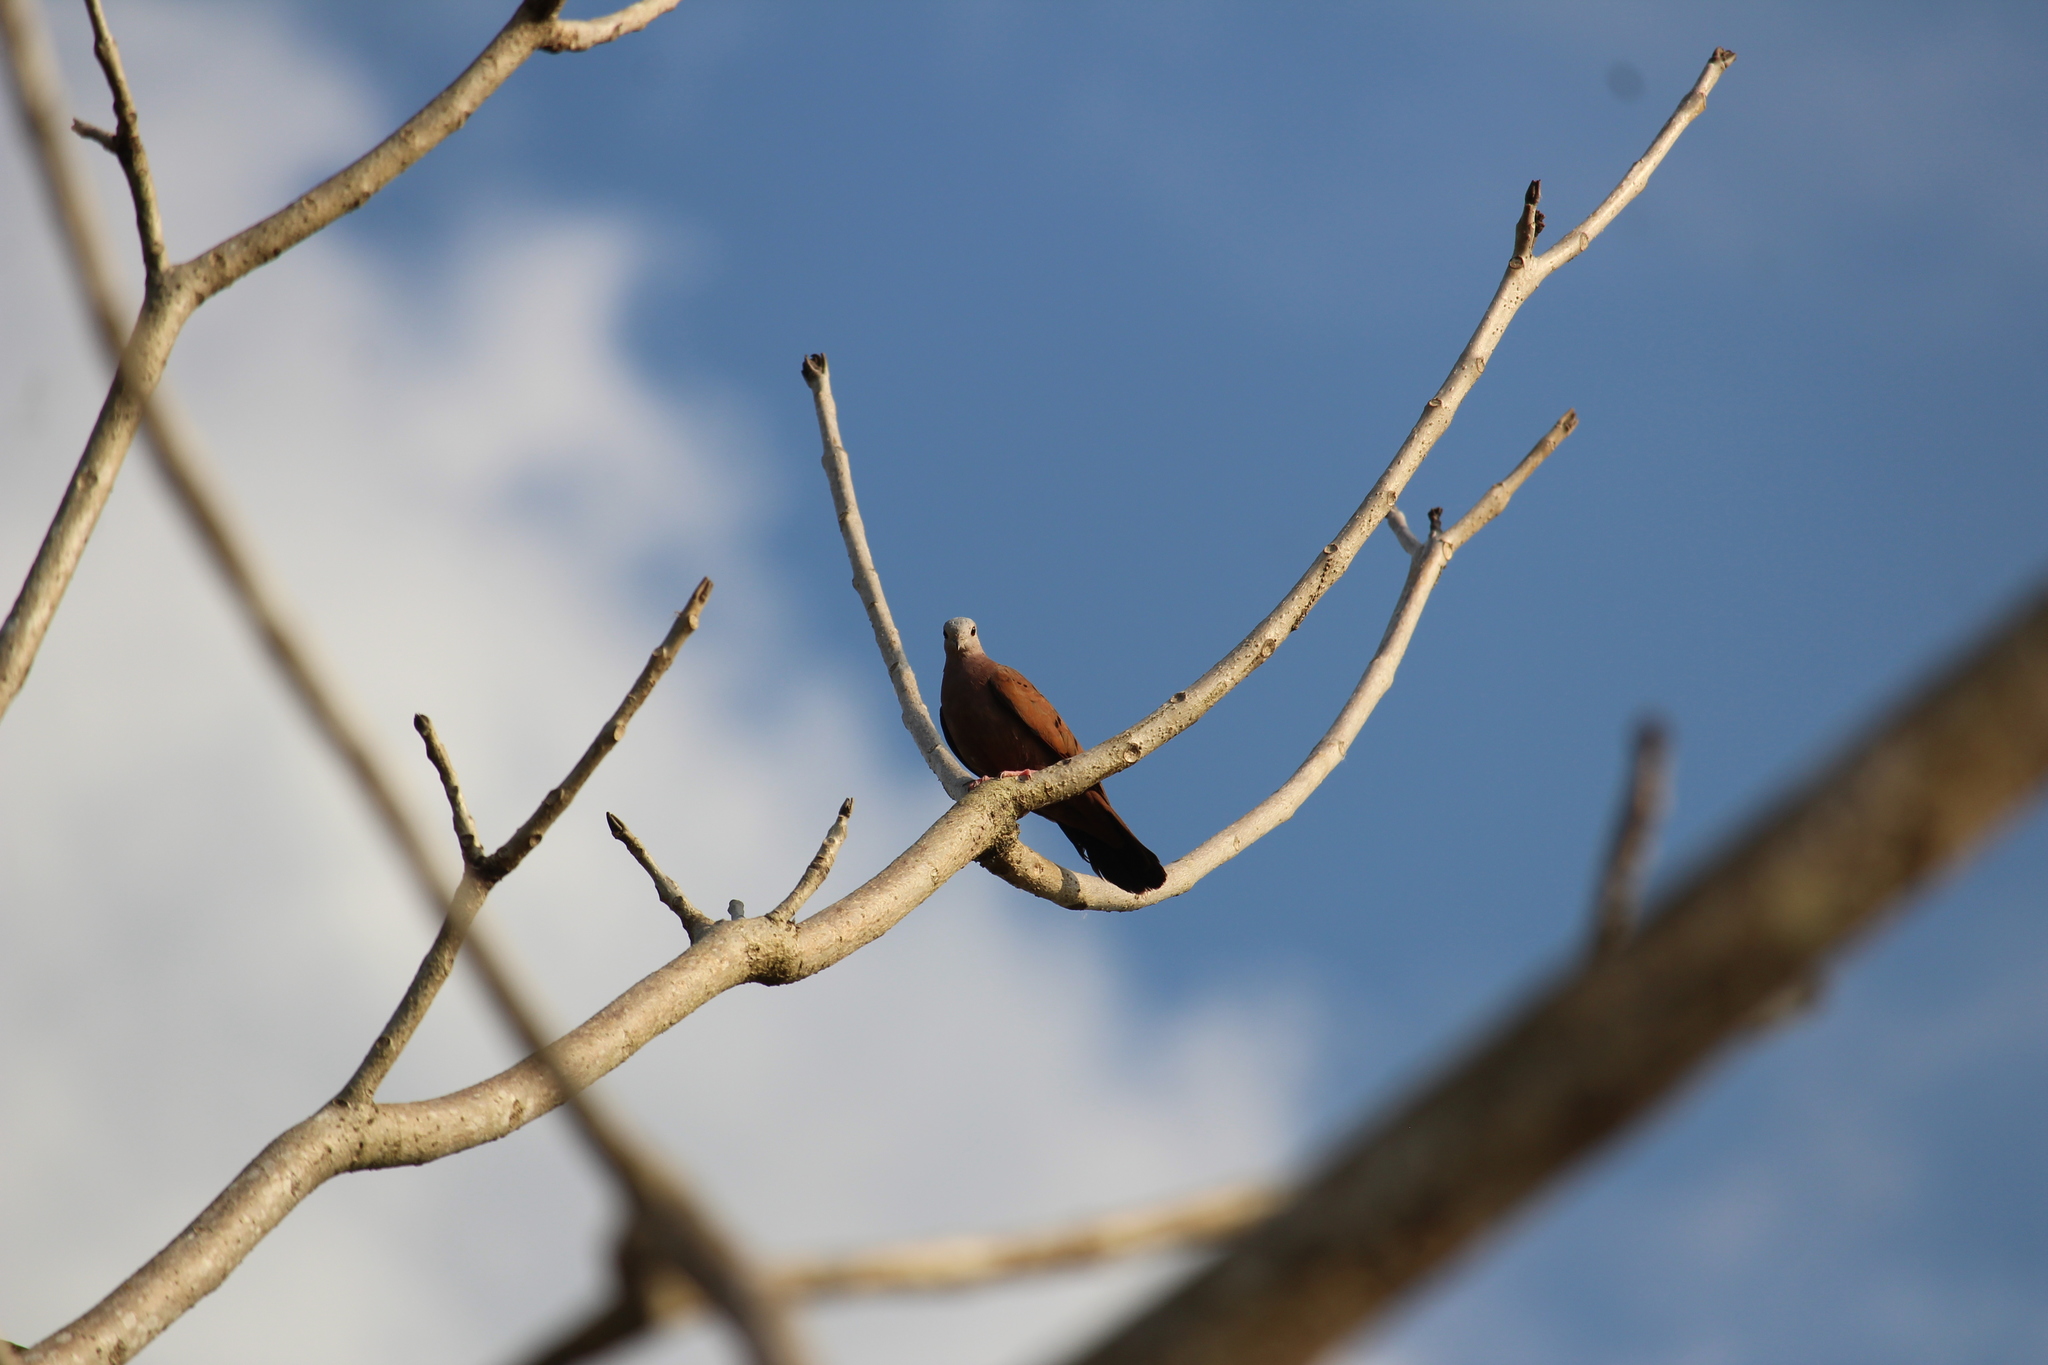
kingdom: Animalia
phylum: Chordata
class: Aves
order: Columbiformes
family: Columbidae
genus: Columbina
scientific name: Columbina talpacoti
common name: Ruddy ground dove
